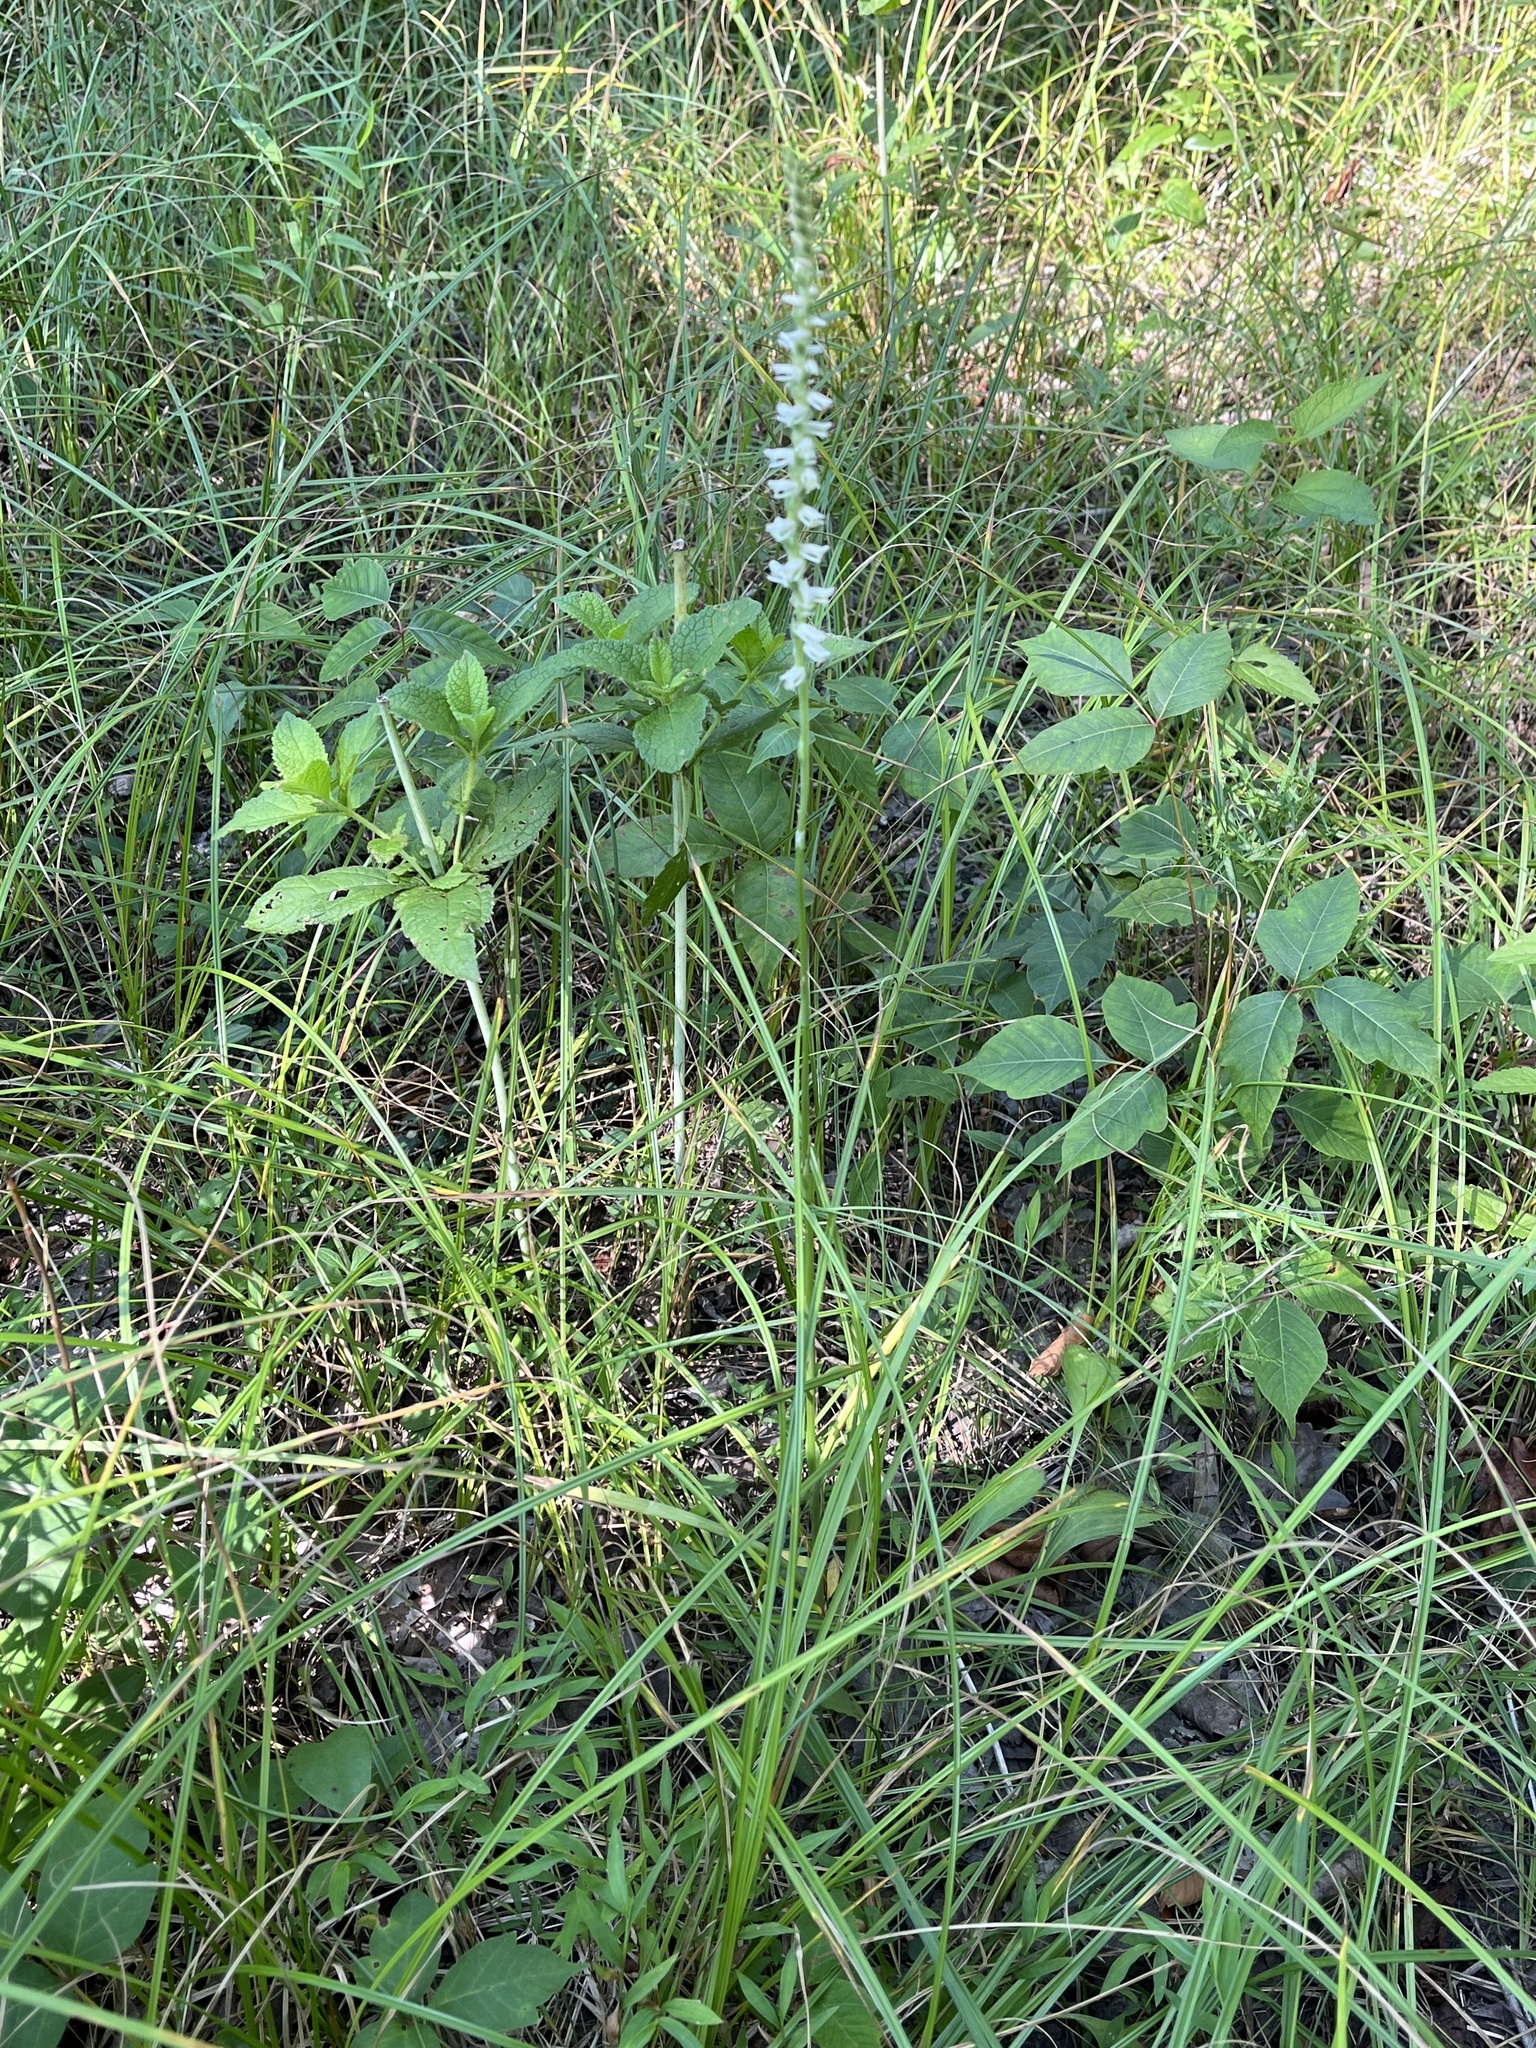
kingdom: Plantae
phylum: Tracheophyta
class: Liliopsida
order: Asparagales
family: Orchidaceae
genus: Spiranthes
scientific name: Spiranthes vernalis
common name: Spring ladies'-tresses
